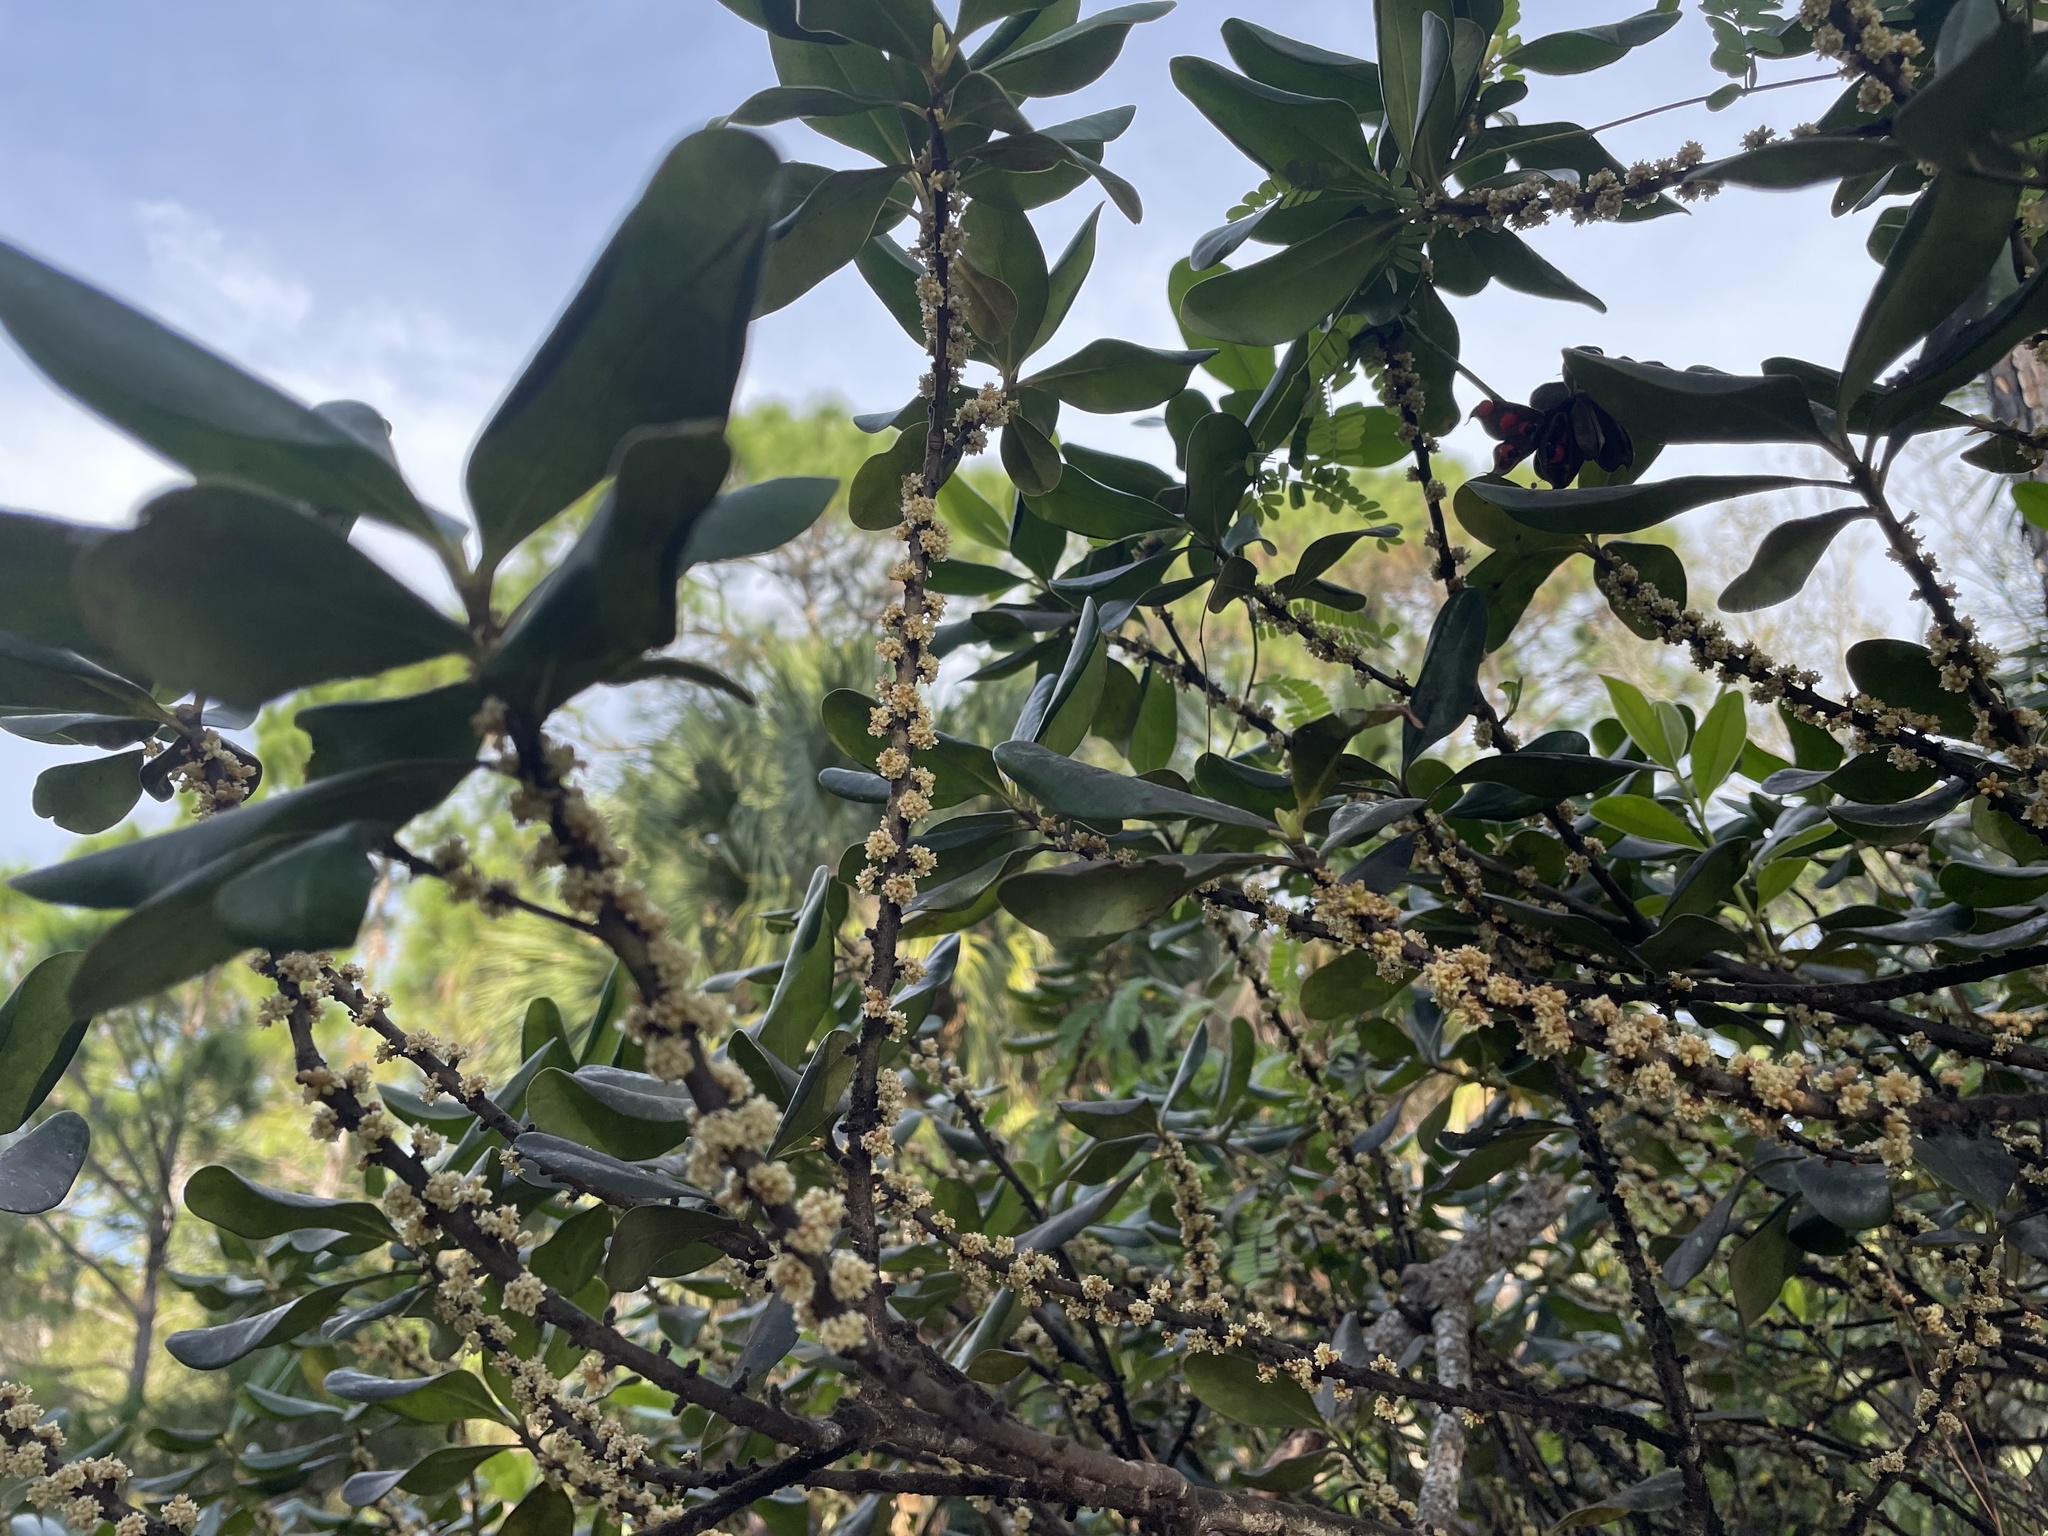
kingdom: Plantae
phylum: Tracheophyta
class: Magnoliopsida
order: Ericales
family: Primulaceae
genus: Myrsine
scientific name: Myrsine floridana
